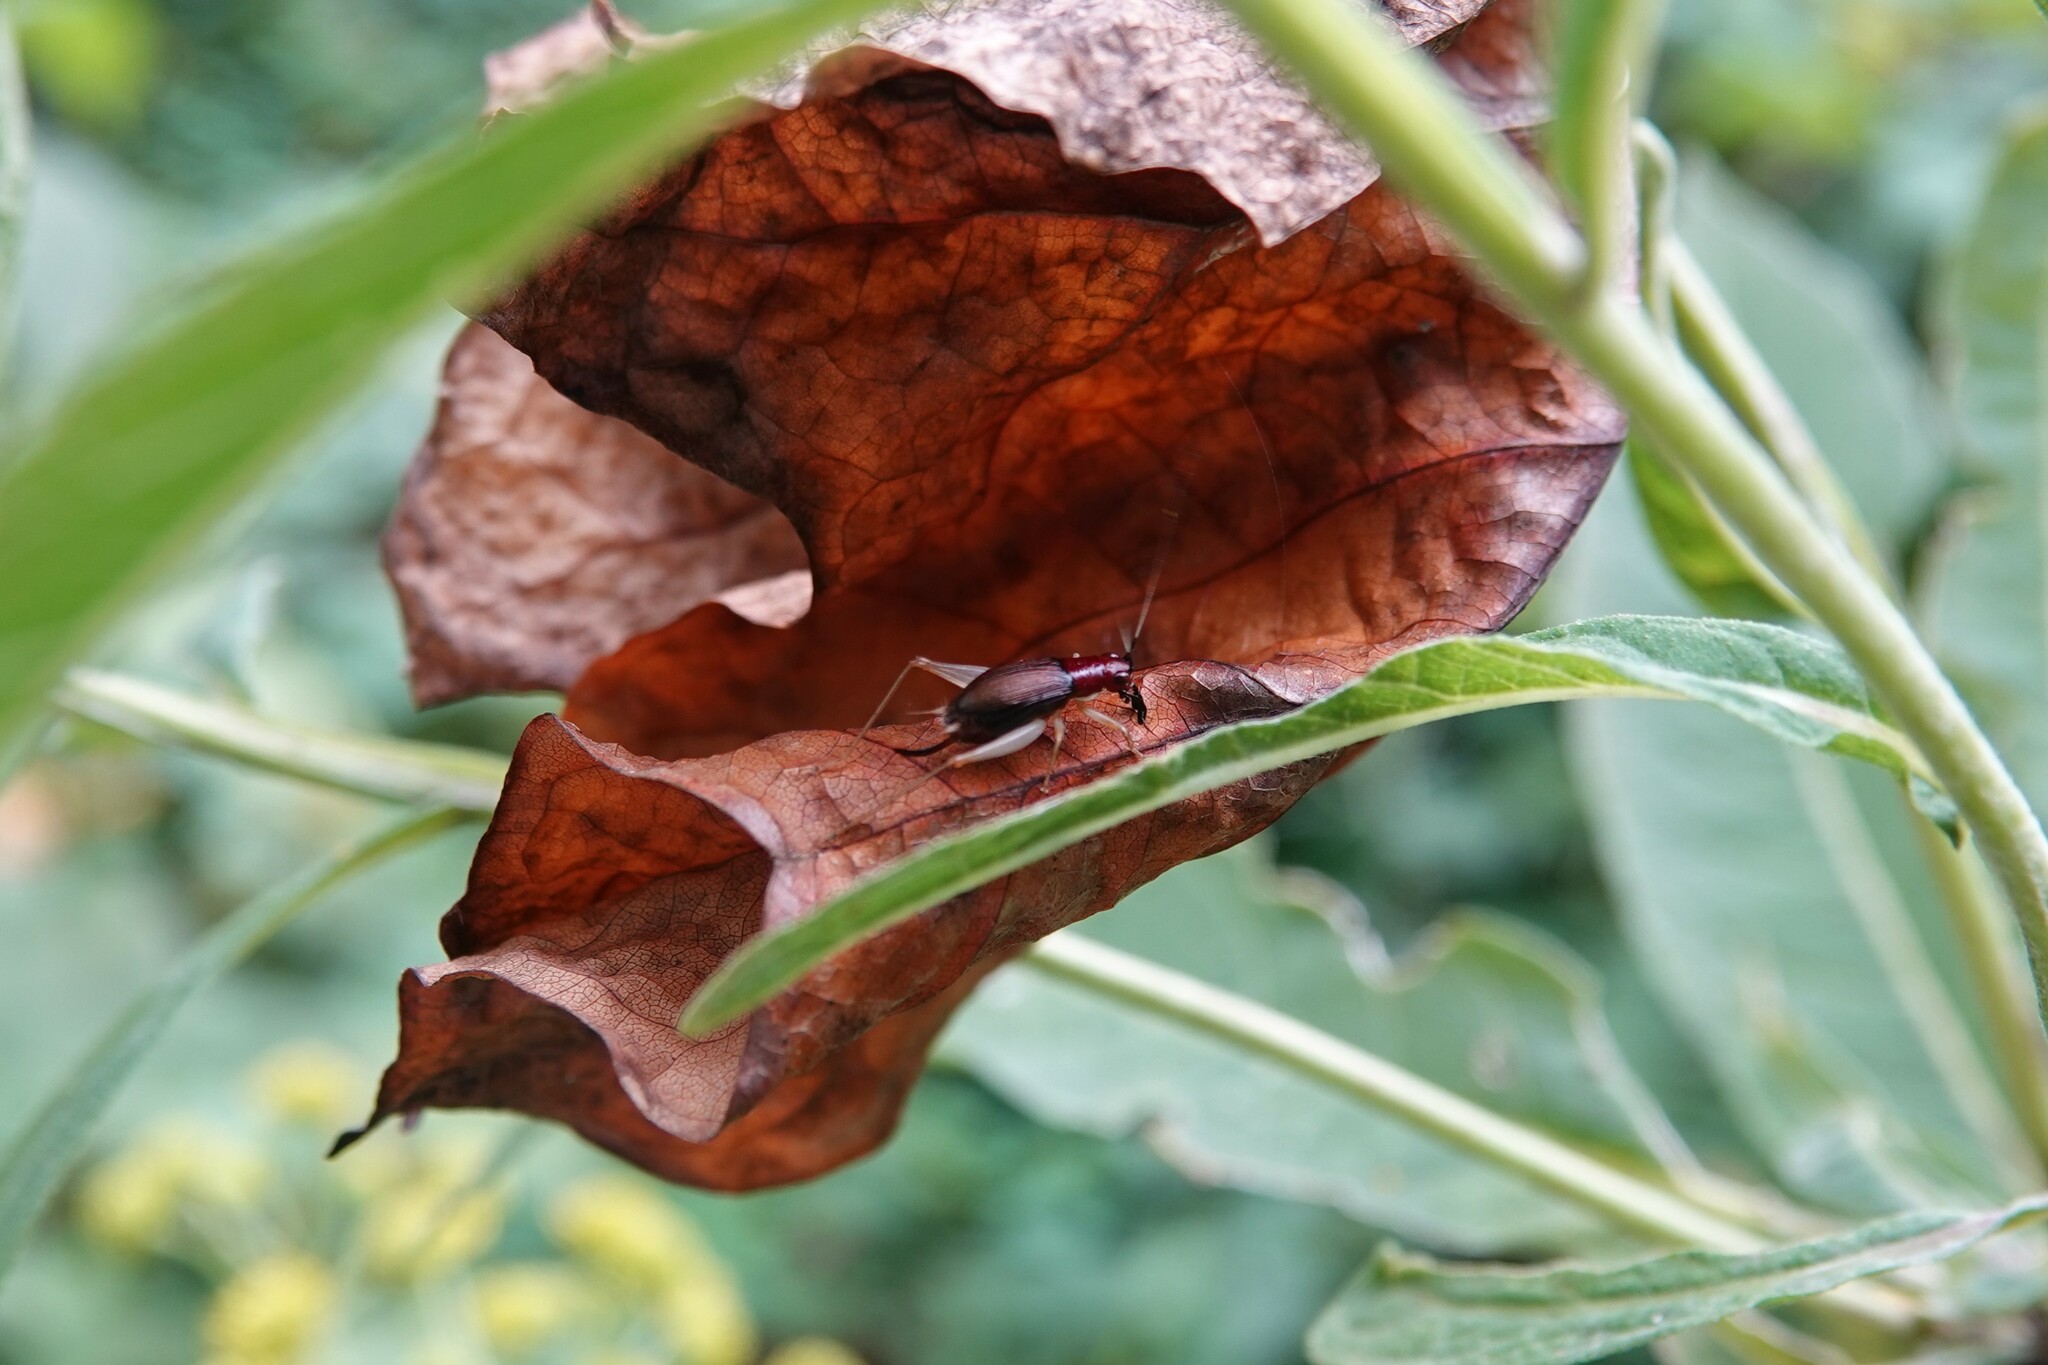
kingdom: Animalia
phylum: Arthropoda
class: Insecta
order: Orthoptera
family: Trigonidiidae
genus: Phyllopalpus
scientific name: Phyllopalpus pulchellus
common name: Handsome trig
